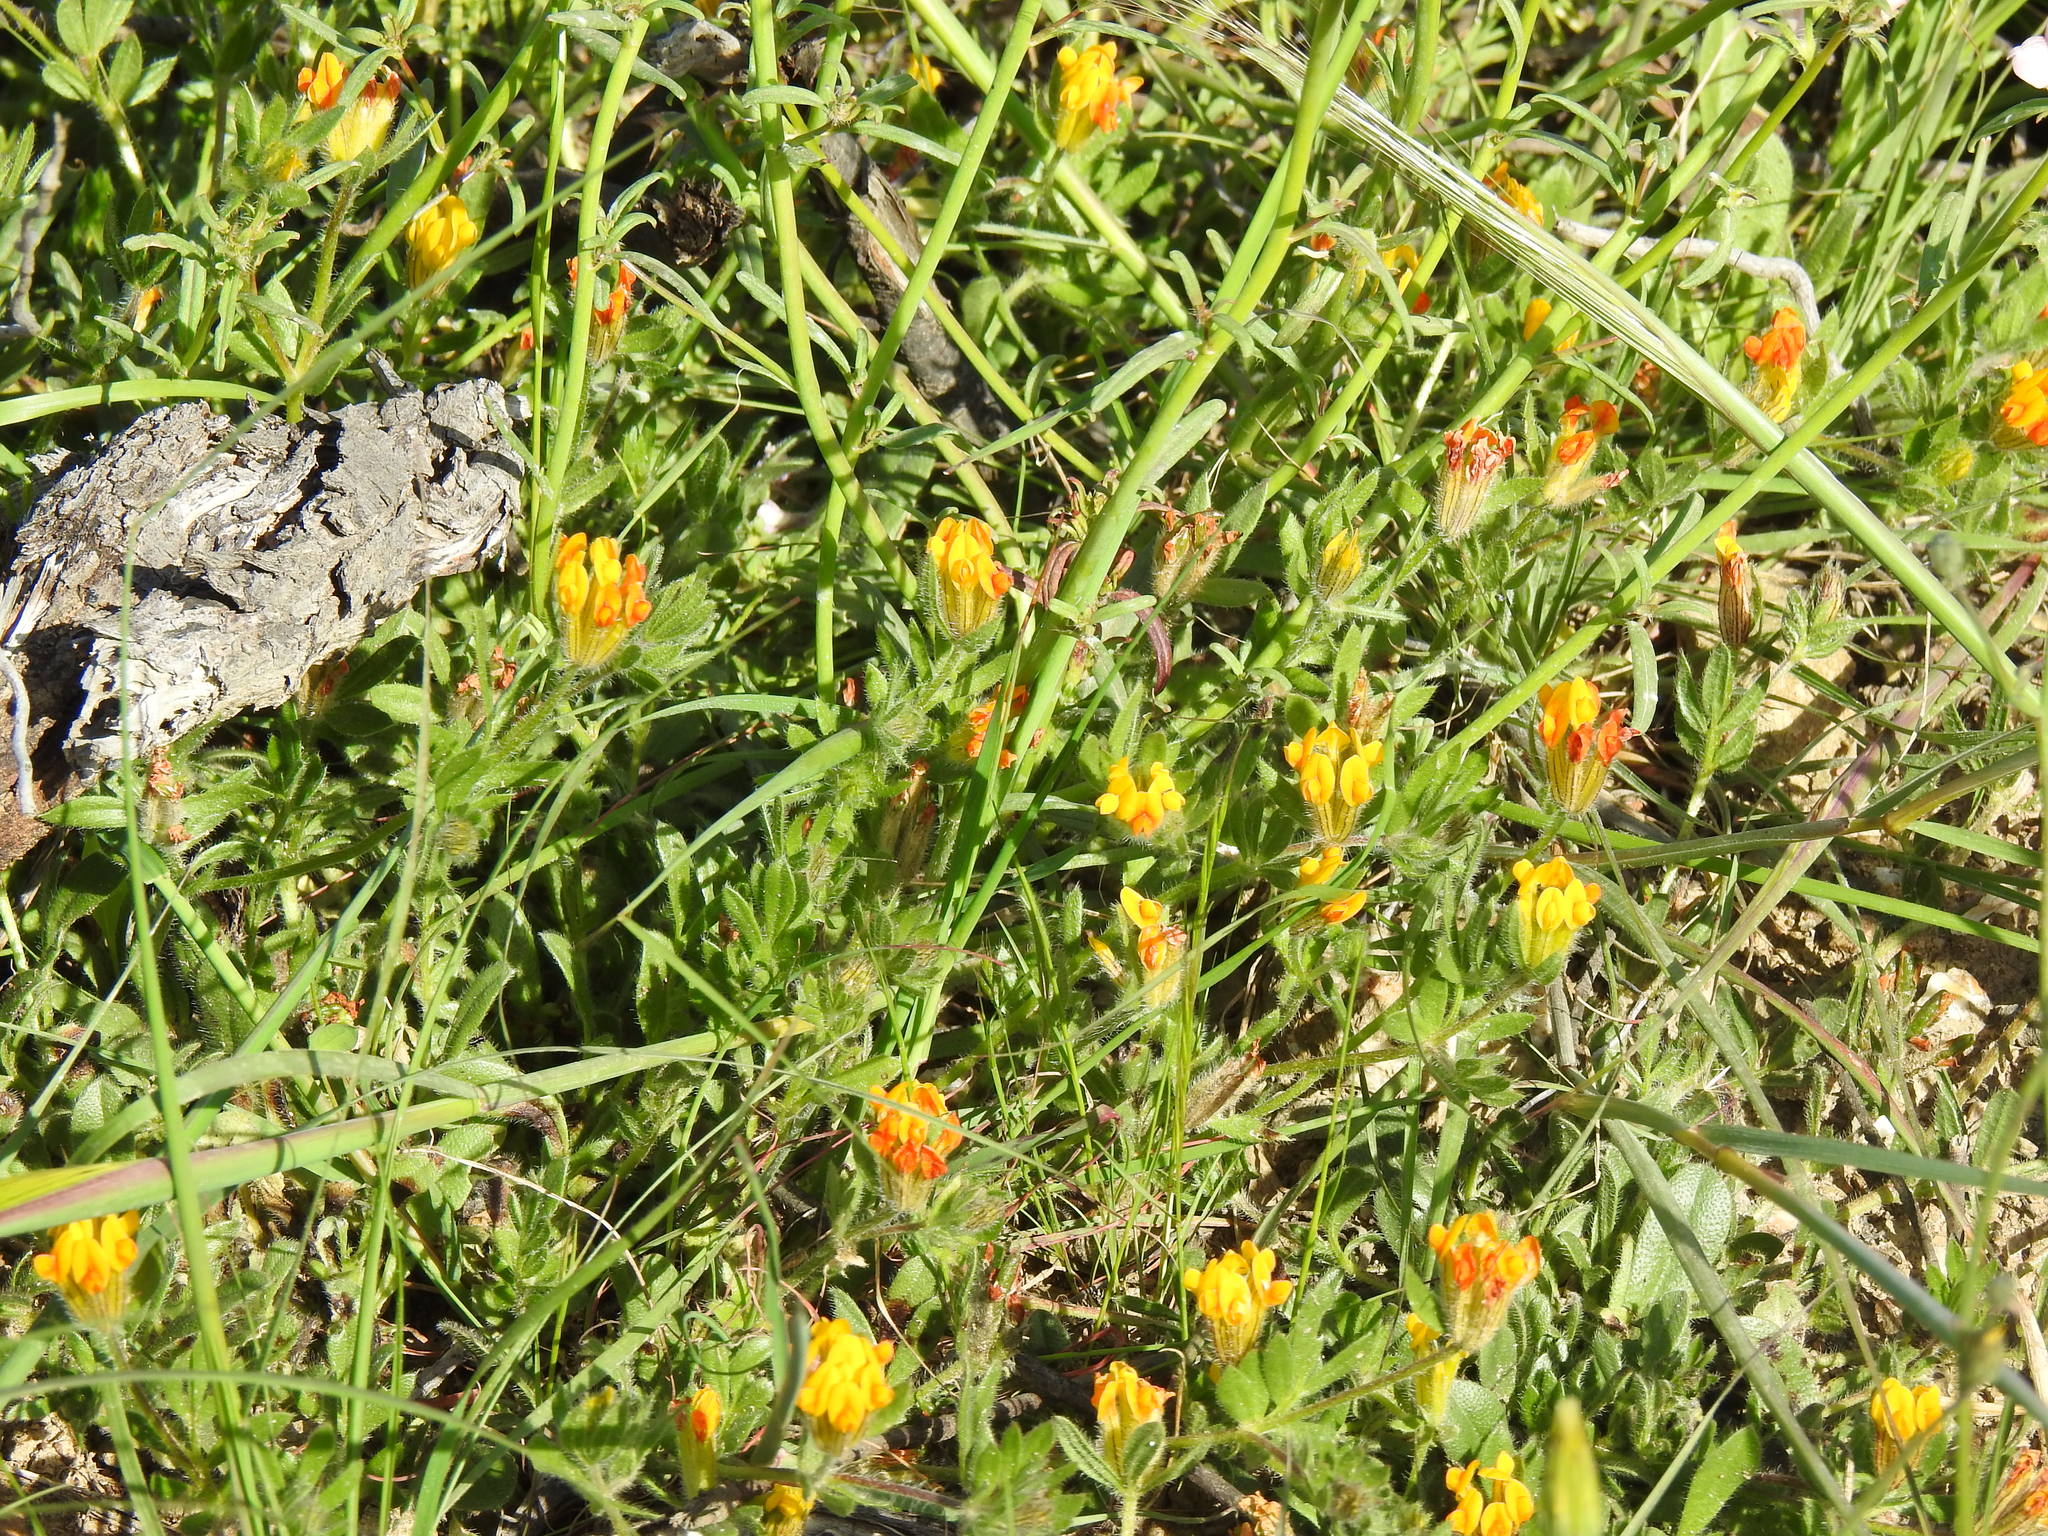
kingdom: Plantae
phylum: Tracheophyta
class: Magnoliopsida
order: Fabales
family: Fabaceae
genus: Anthyllis
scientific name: Anthyllis lotoides
